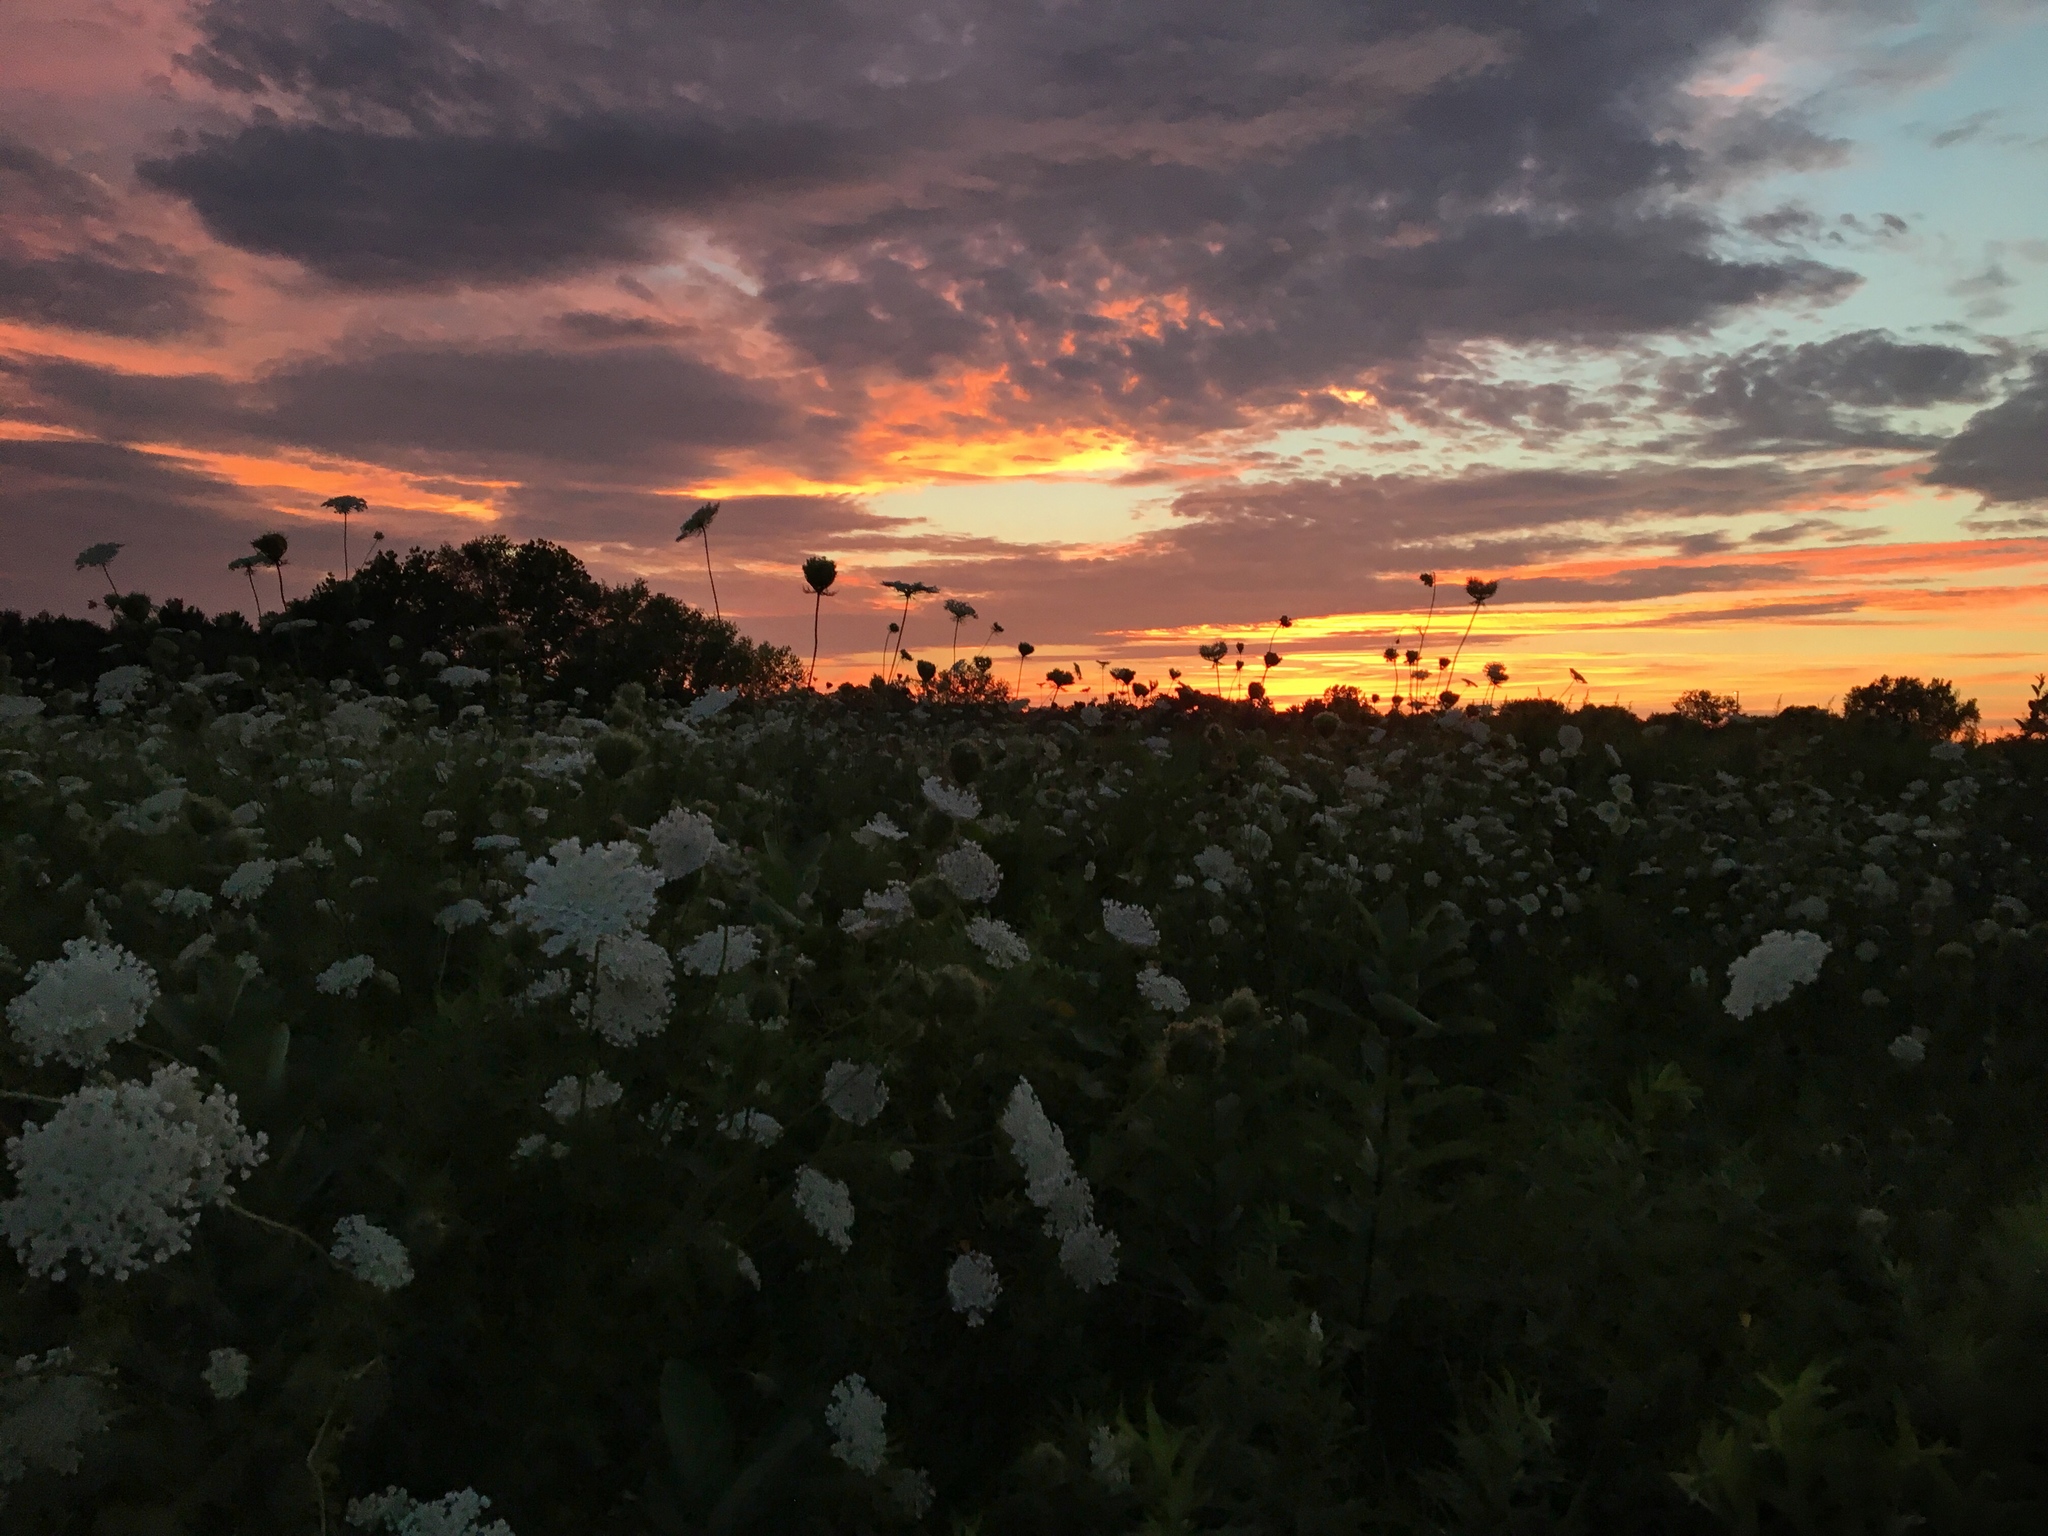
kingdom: Plantae
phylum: Tracheophyta
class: Magnoliopsida
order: Apiales
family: Apiaceae
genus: Daucus
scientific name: Daucus carota
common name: Wild carrot
